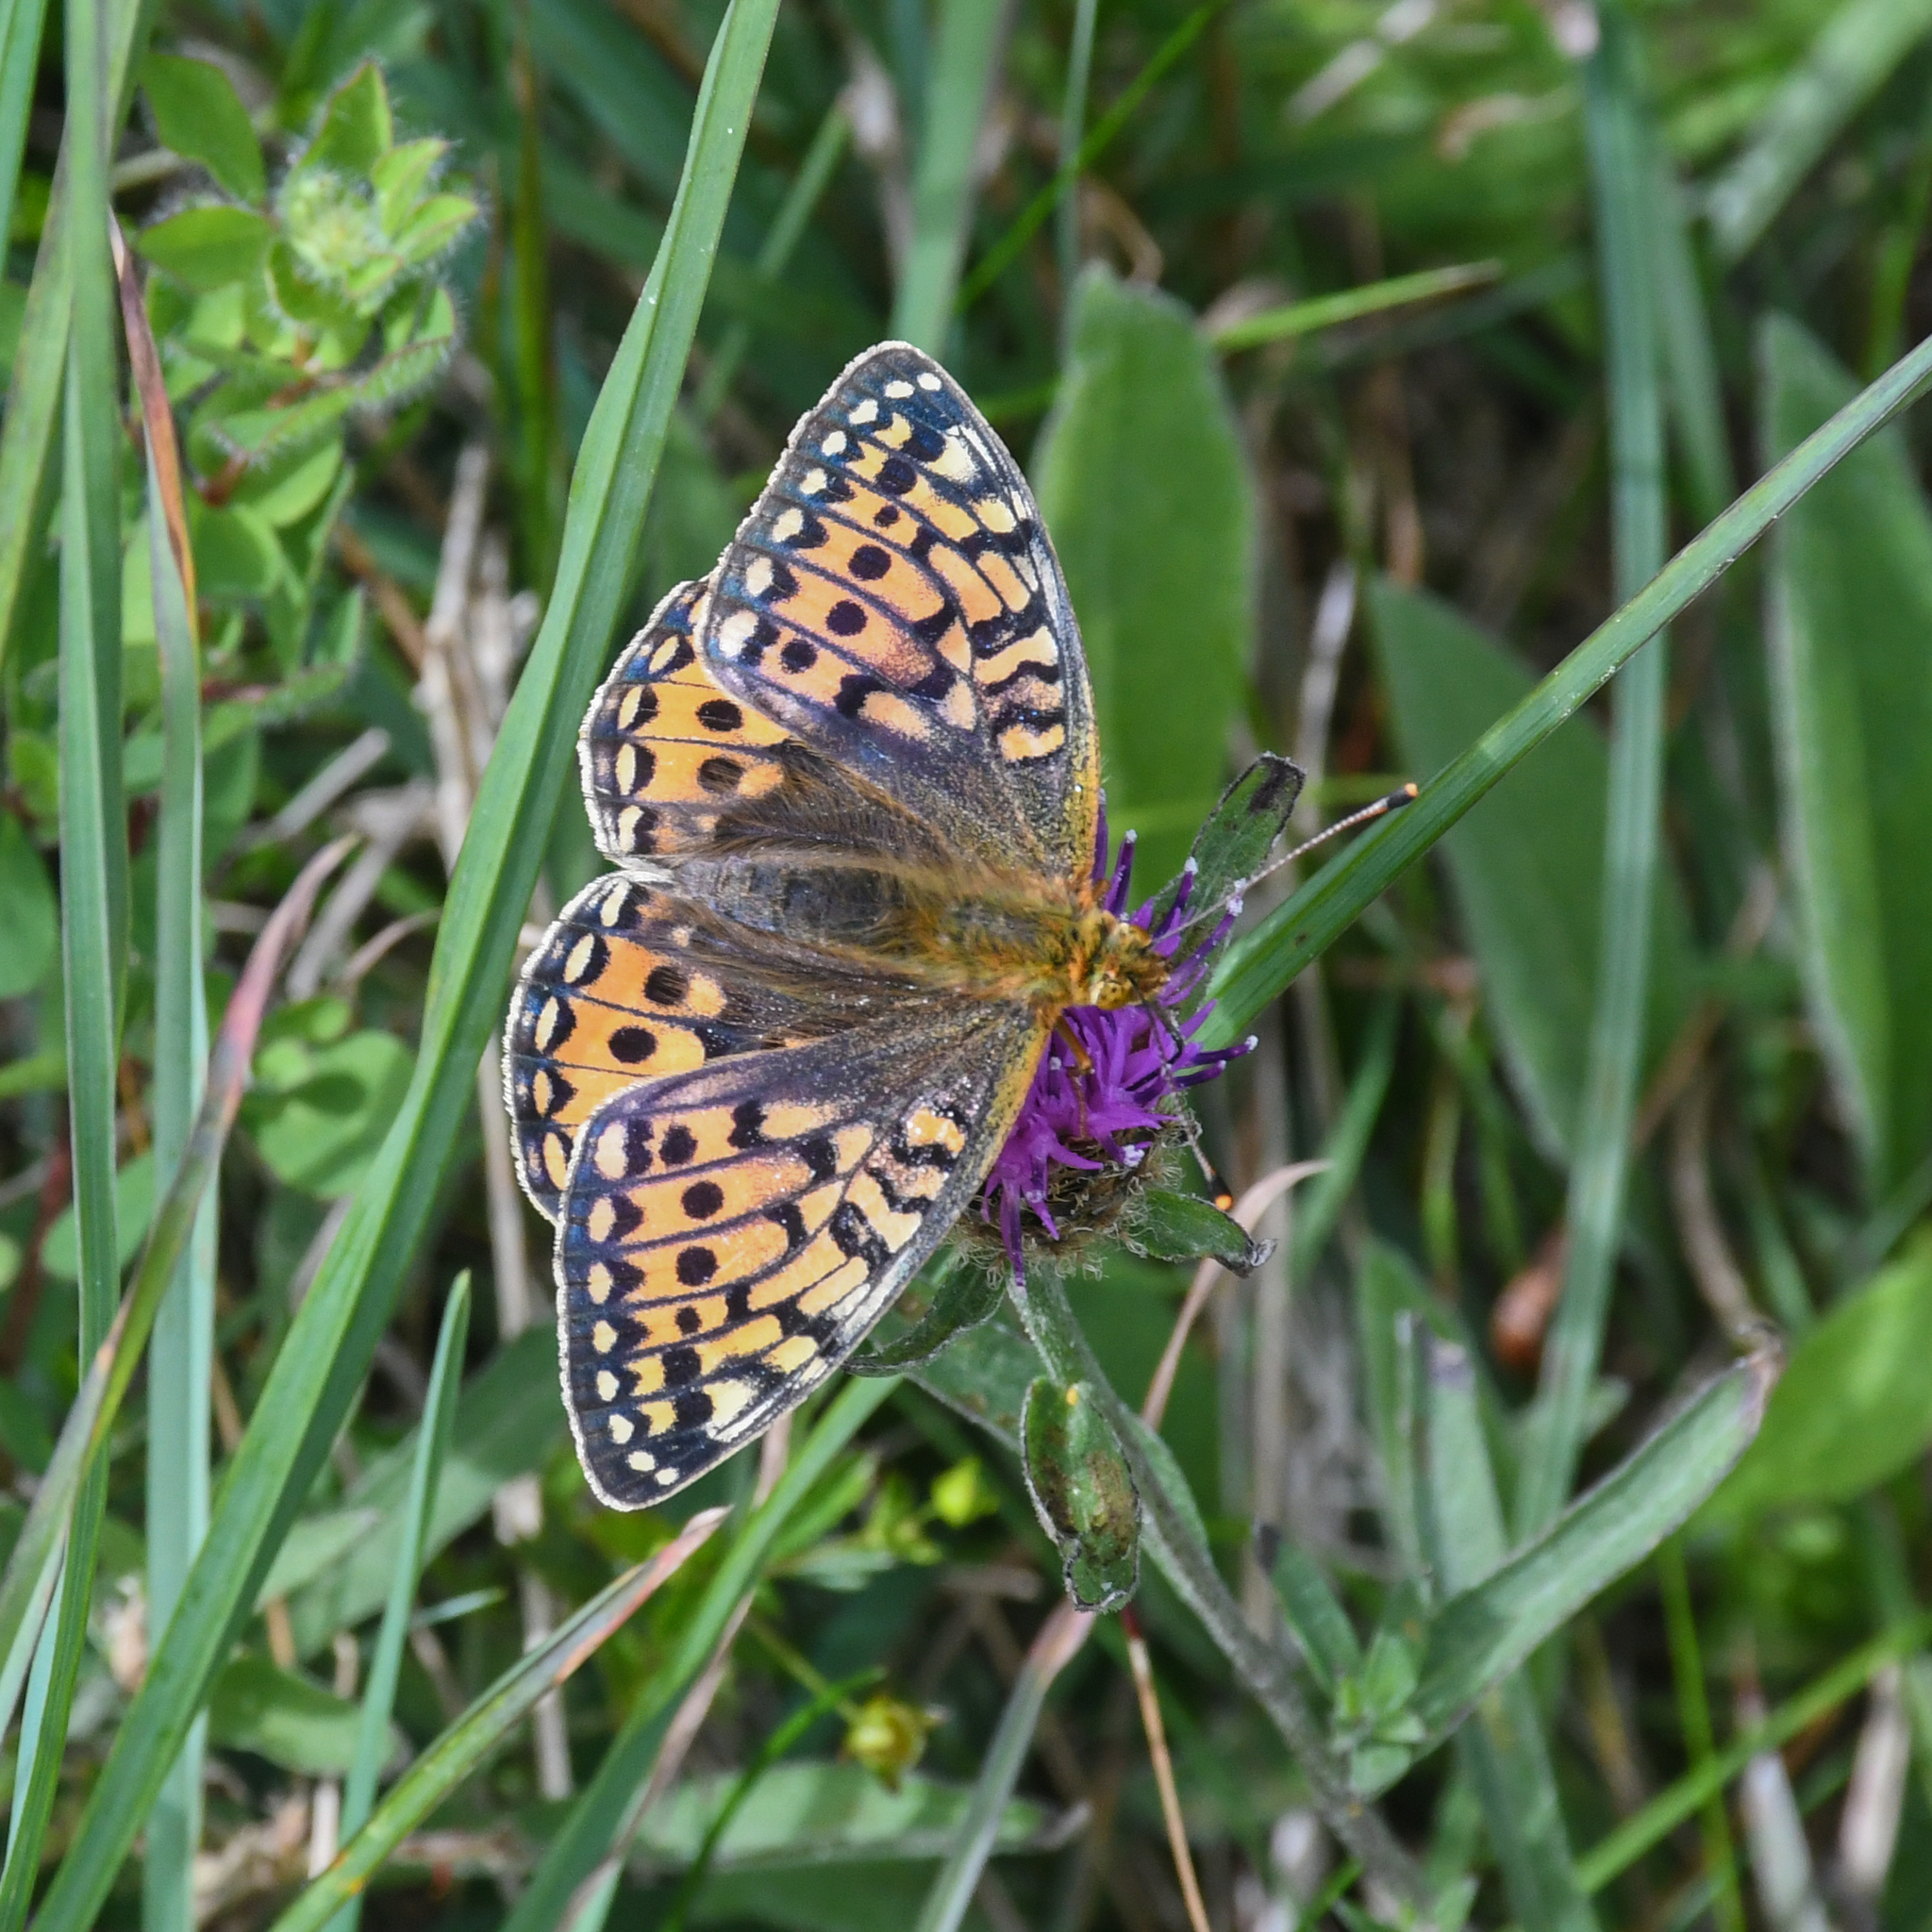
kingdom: Animalia
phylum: Arthropoda
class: Insecta
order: Lepidoptera
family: Nymphalidae
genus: Speyeria
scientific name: Speyeria aglaja
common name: Dark green fritillary
